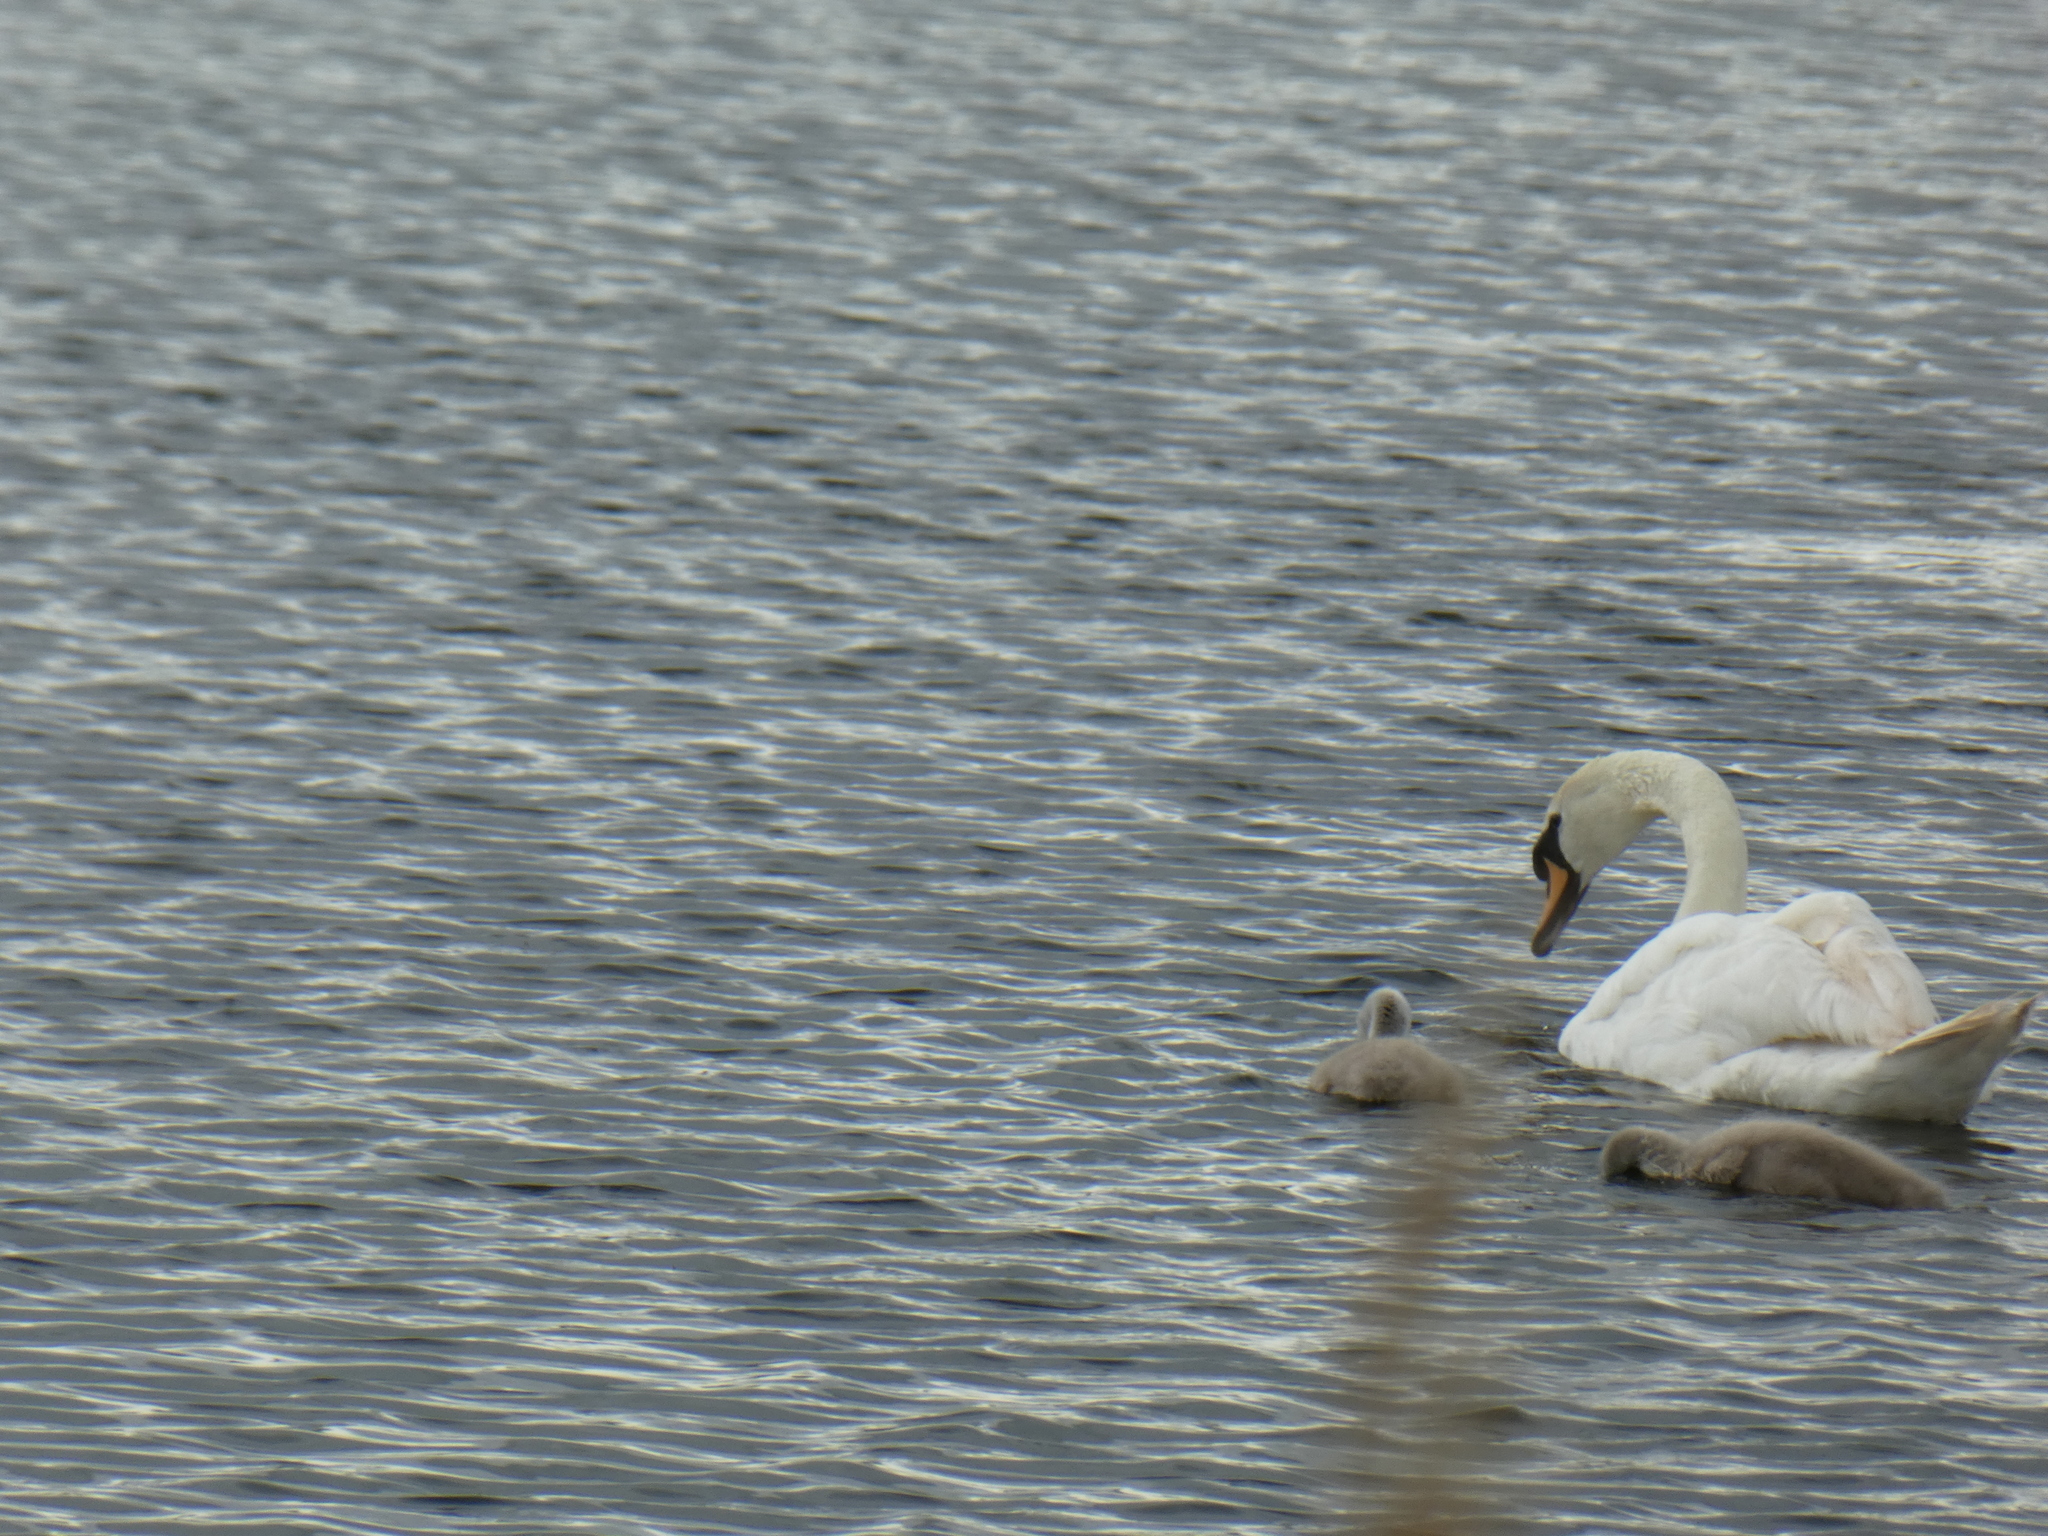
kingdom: Animalia
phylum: Chordata
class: Aves
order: Anseriformes
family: Anatidae
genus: Cygnus
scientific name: Cygnus olor
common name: Mute swan
